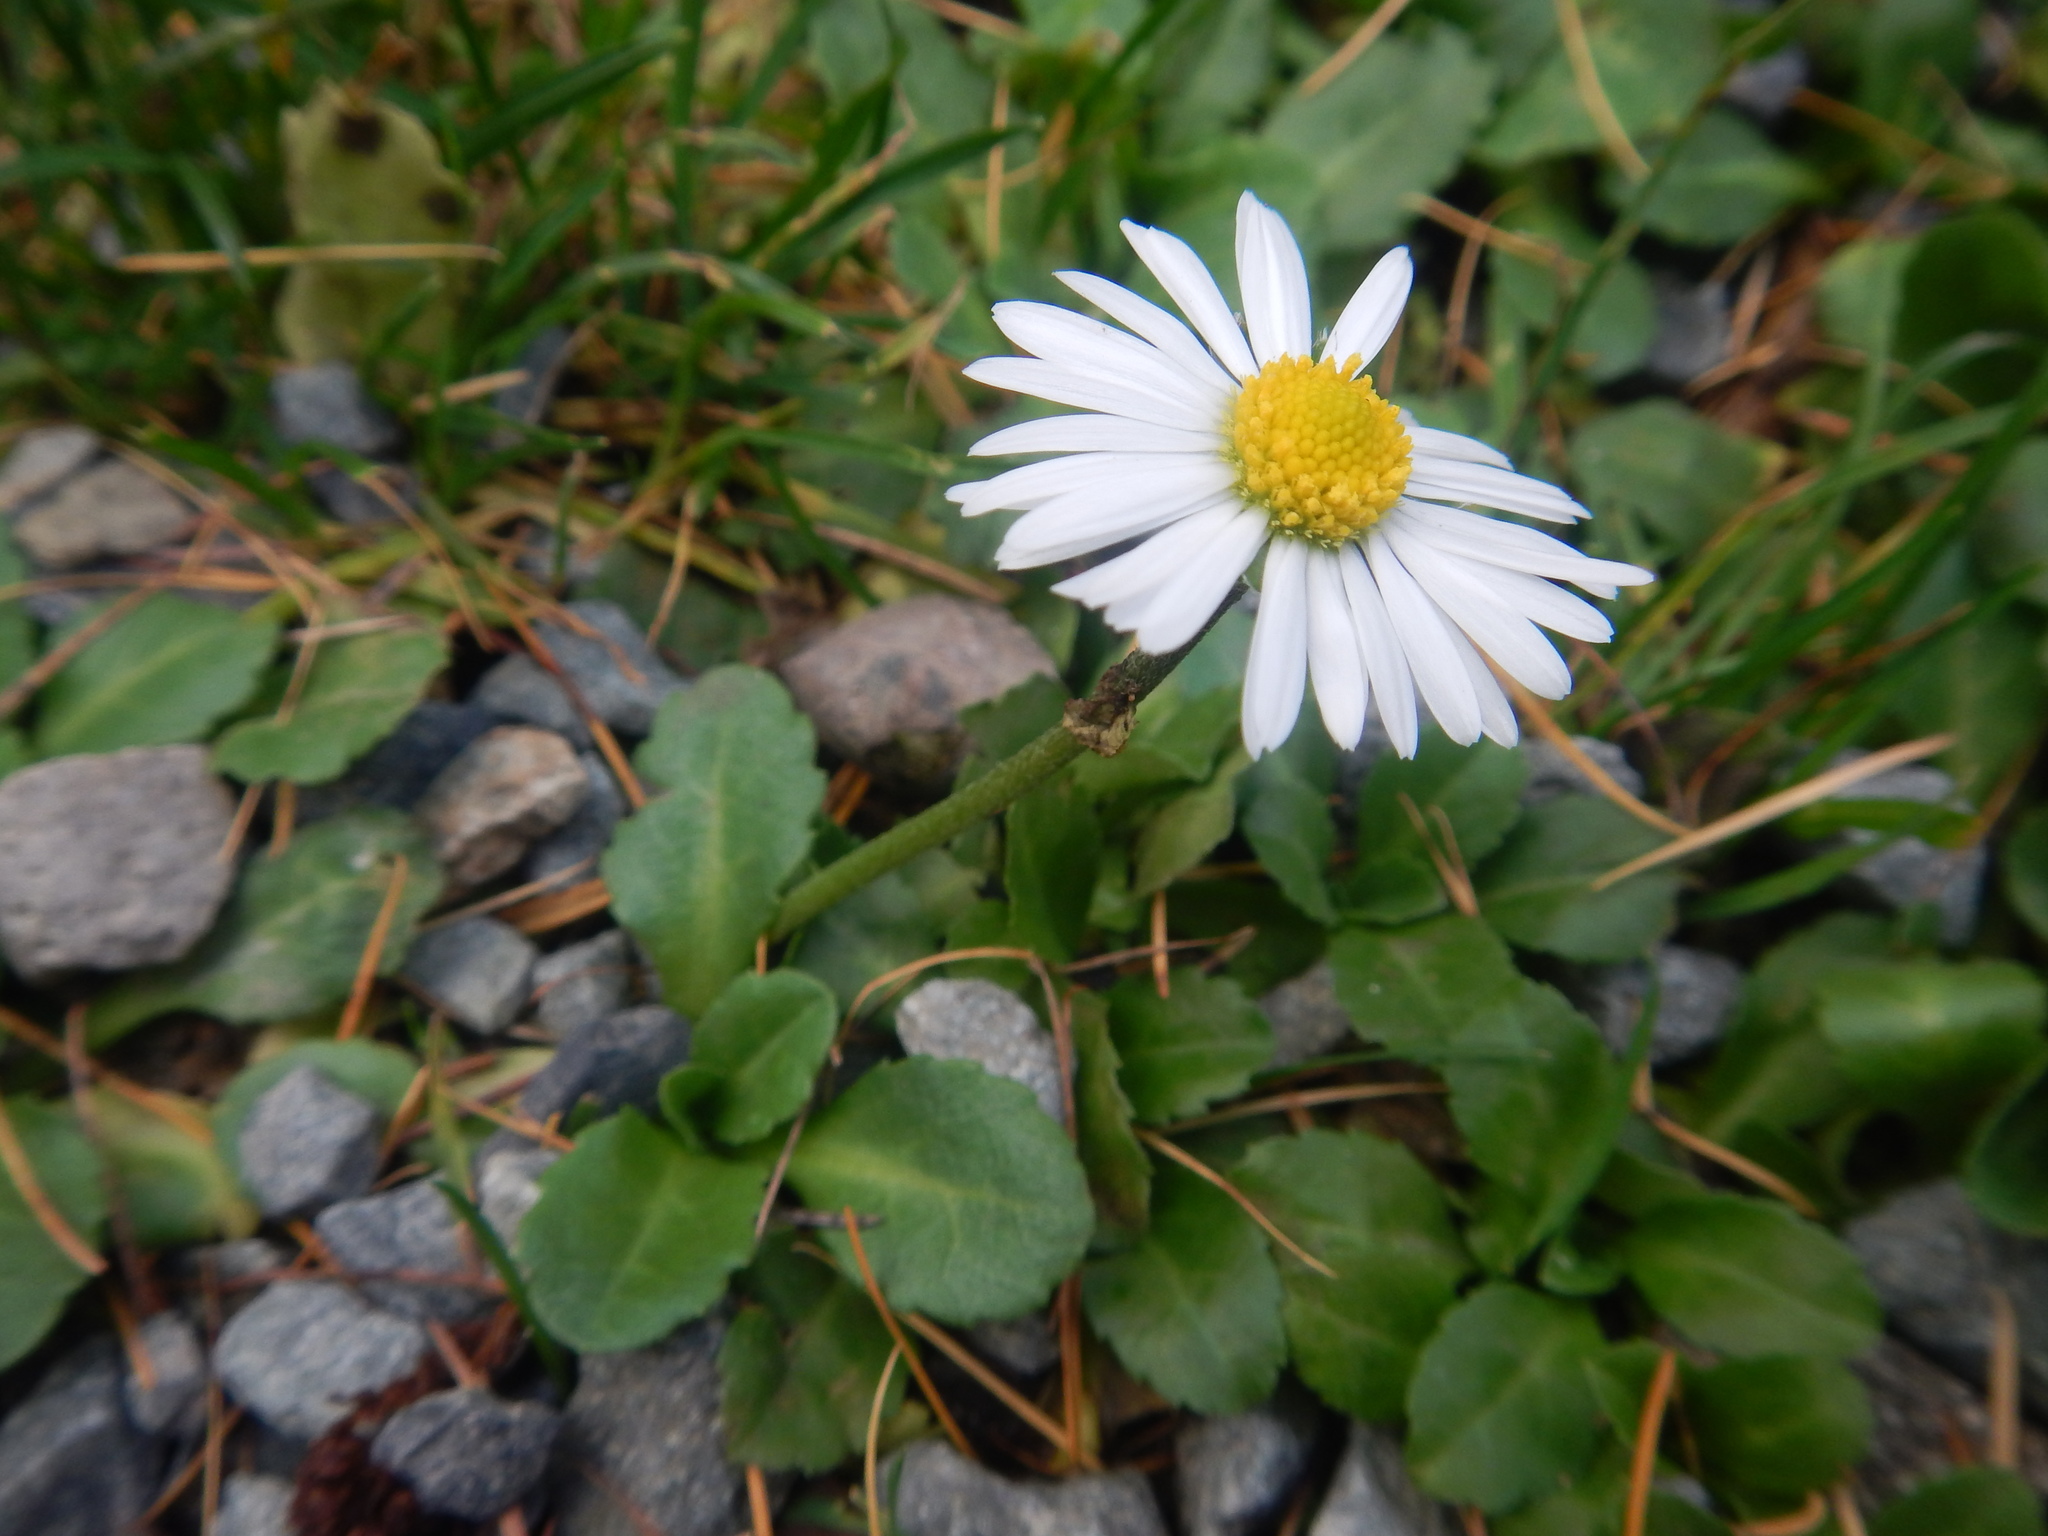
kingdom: Plantae
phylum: Tracheophyta
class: Magnoliopsida
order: Asterales
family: Asteraceae
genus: Bellis
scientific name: Bellis perennis
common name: Lawndaisy
